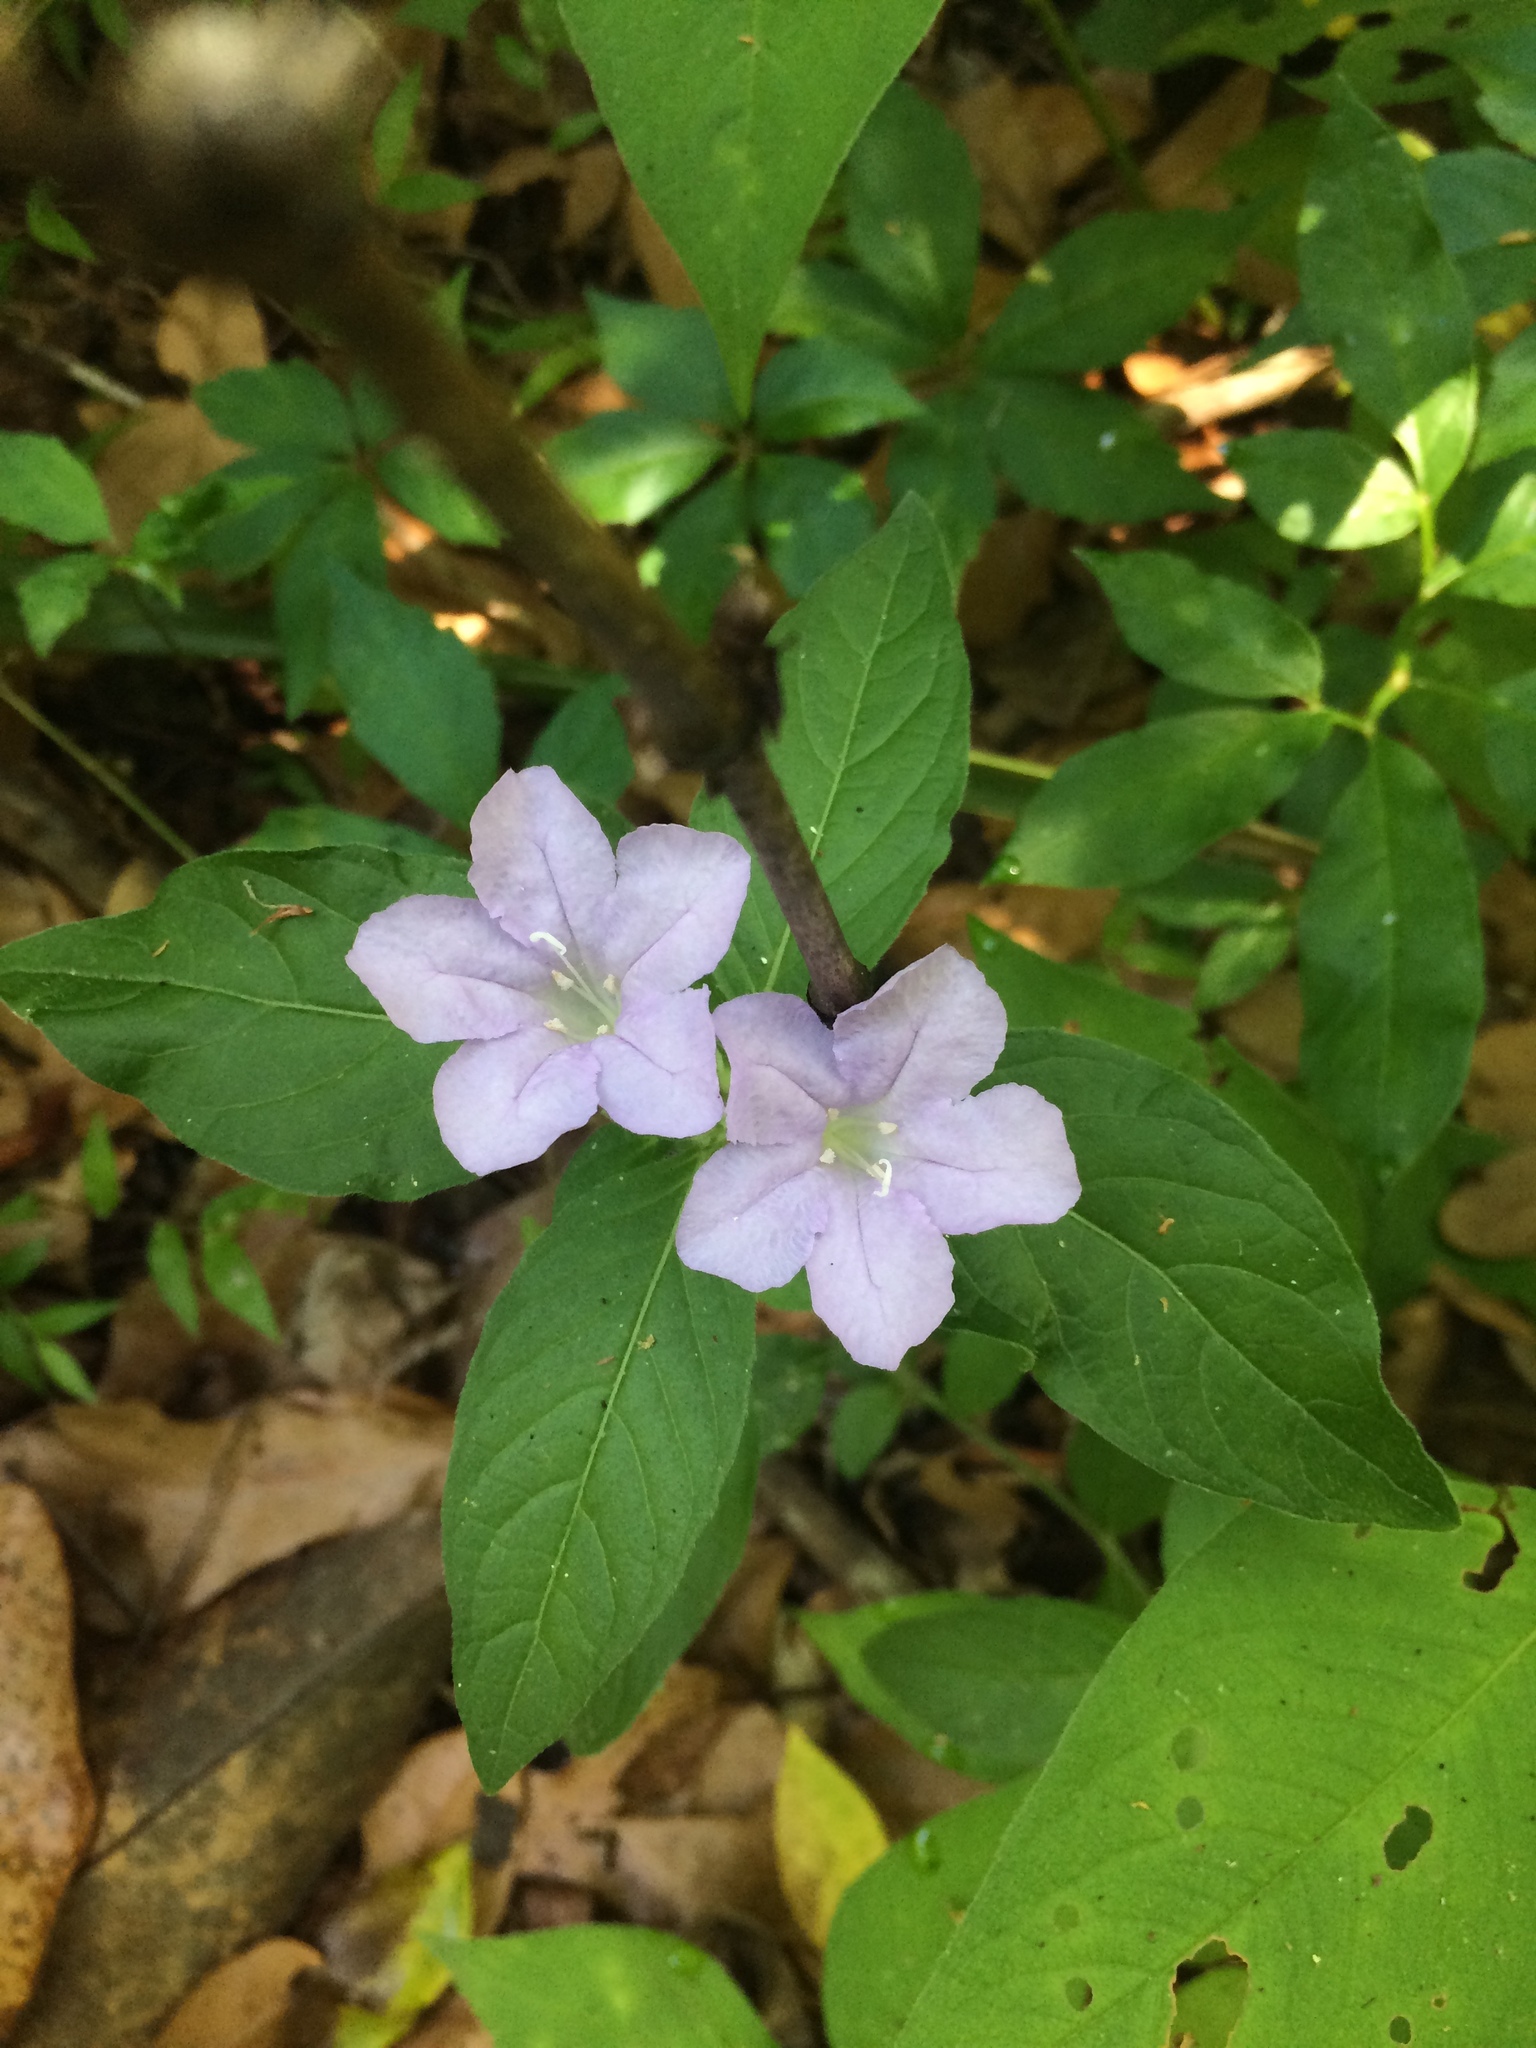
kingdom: Plantae
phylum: Tracheophyta
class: Magnoliopsida
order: Lamiales
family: Acanthaceae
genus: Ruellia
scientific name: Ruellia caroliniensis
